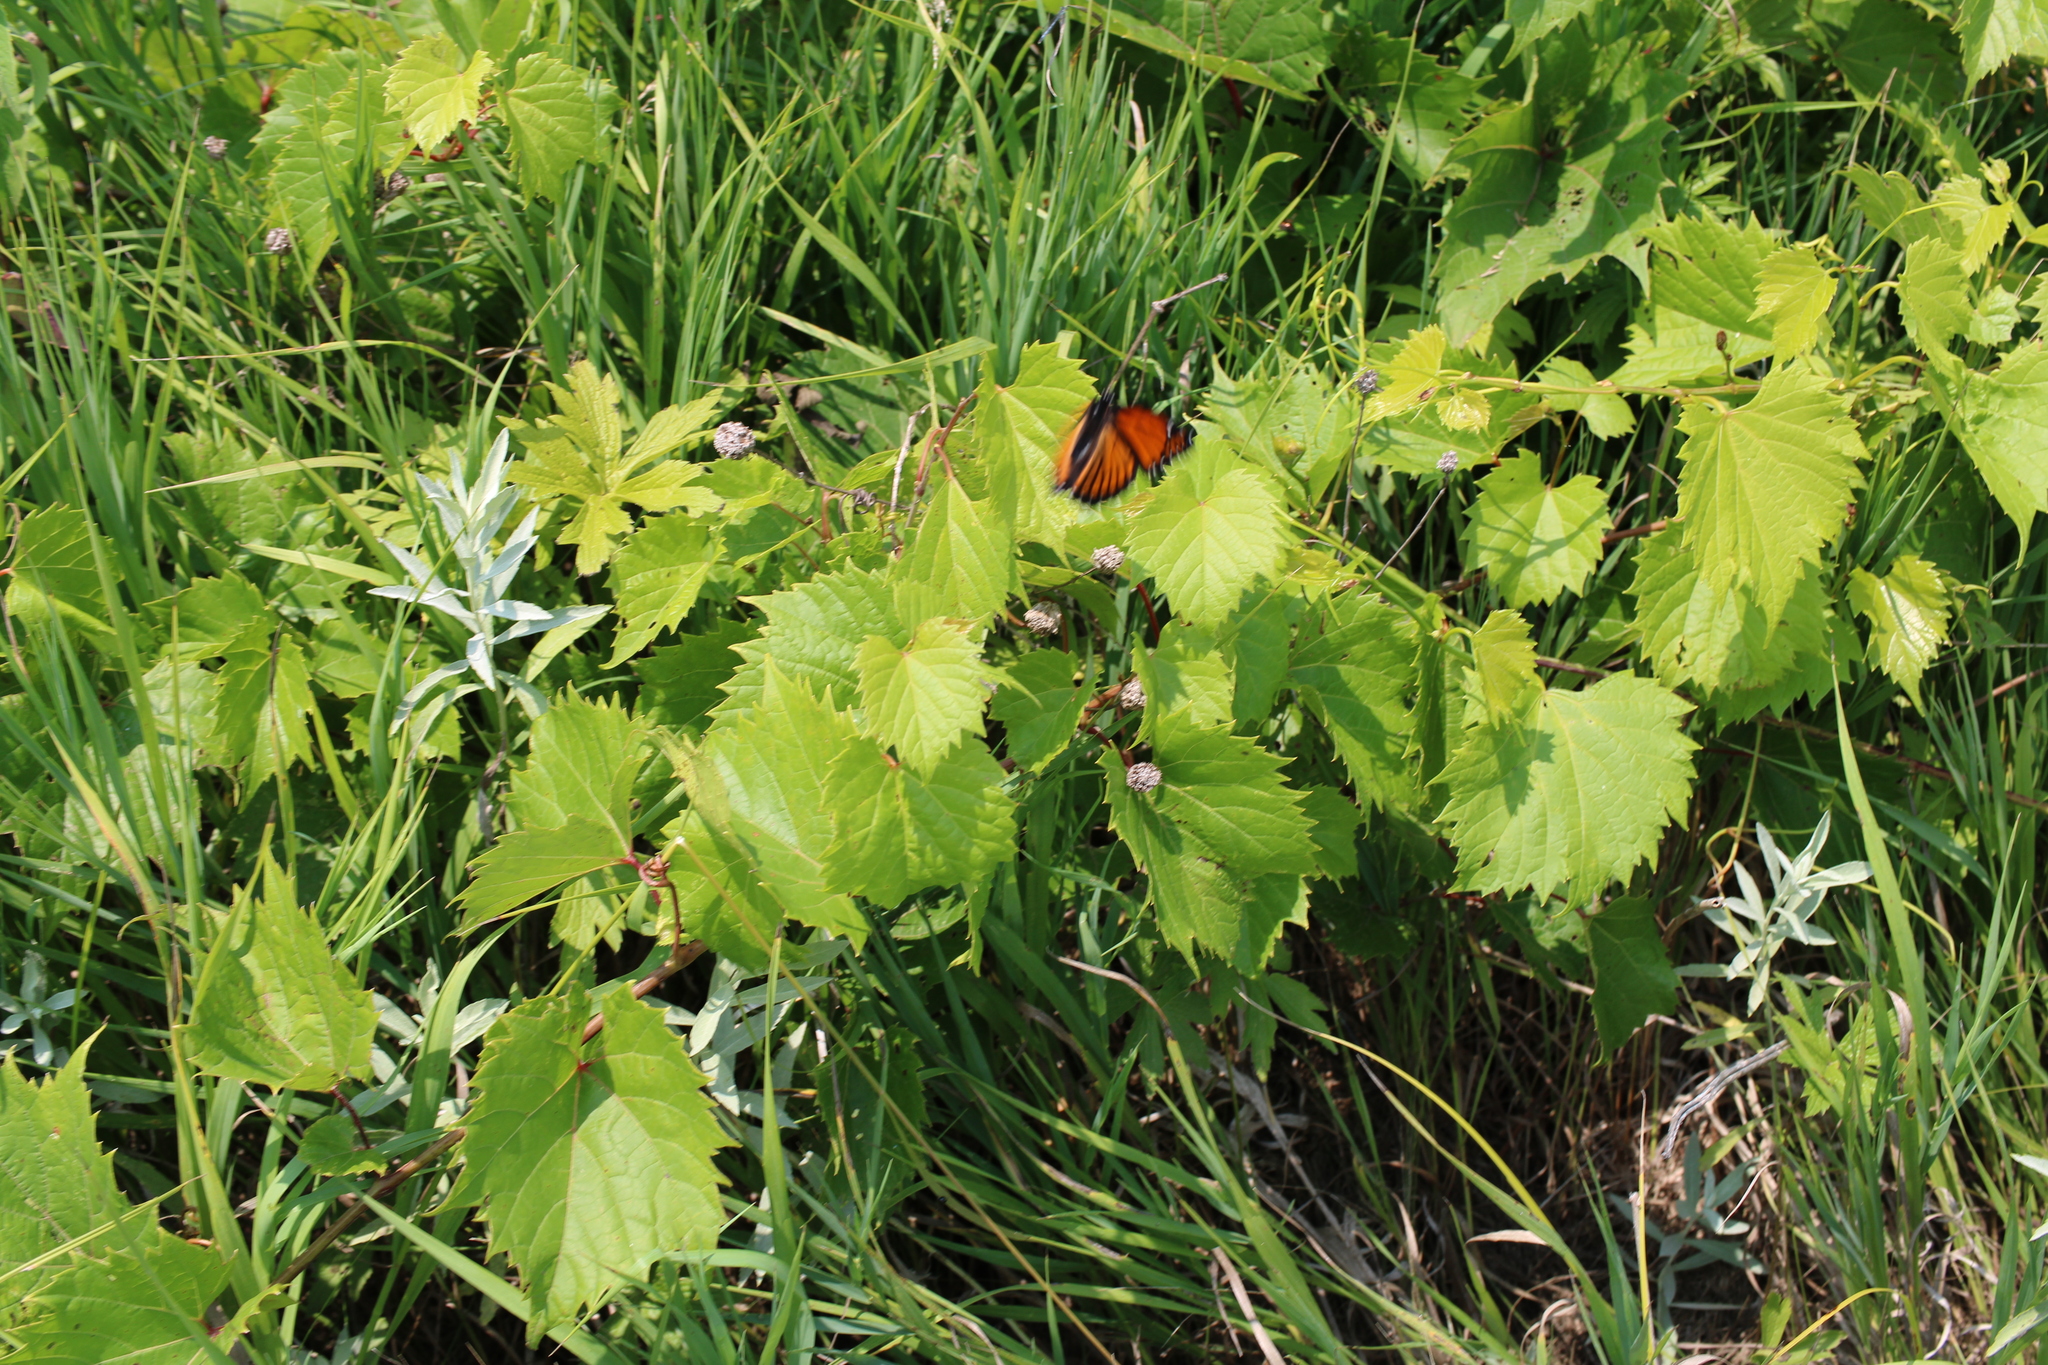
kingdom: Animalia
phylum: Arthropoda
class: Insecta
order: Lepidoptera
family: Nymphalidae
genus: Limenitis
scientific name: Limenitis archippus
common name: Viceroy
